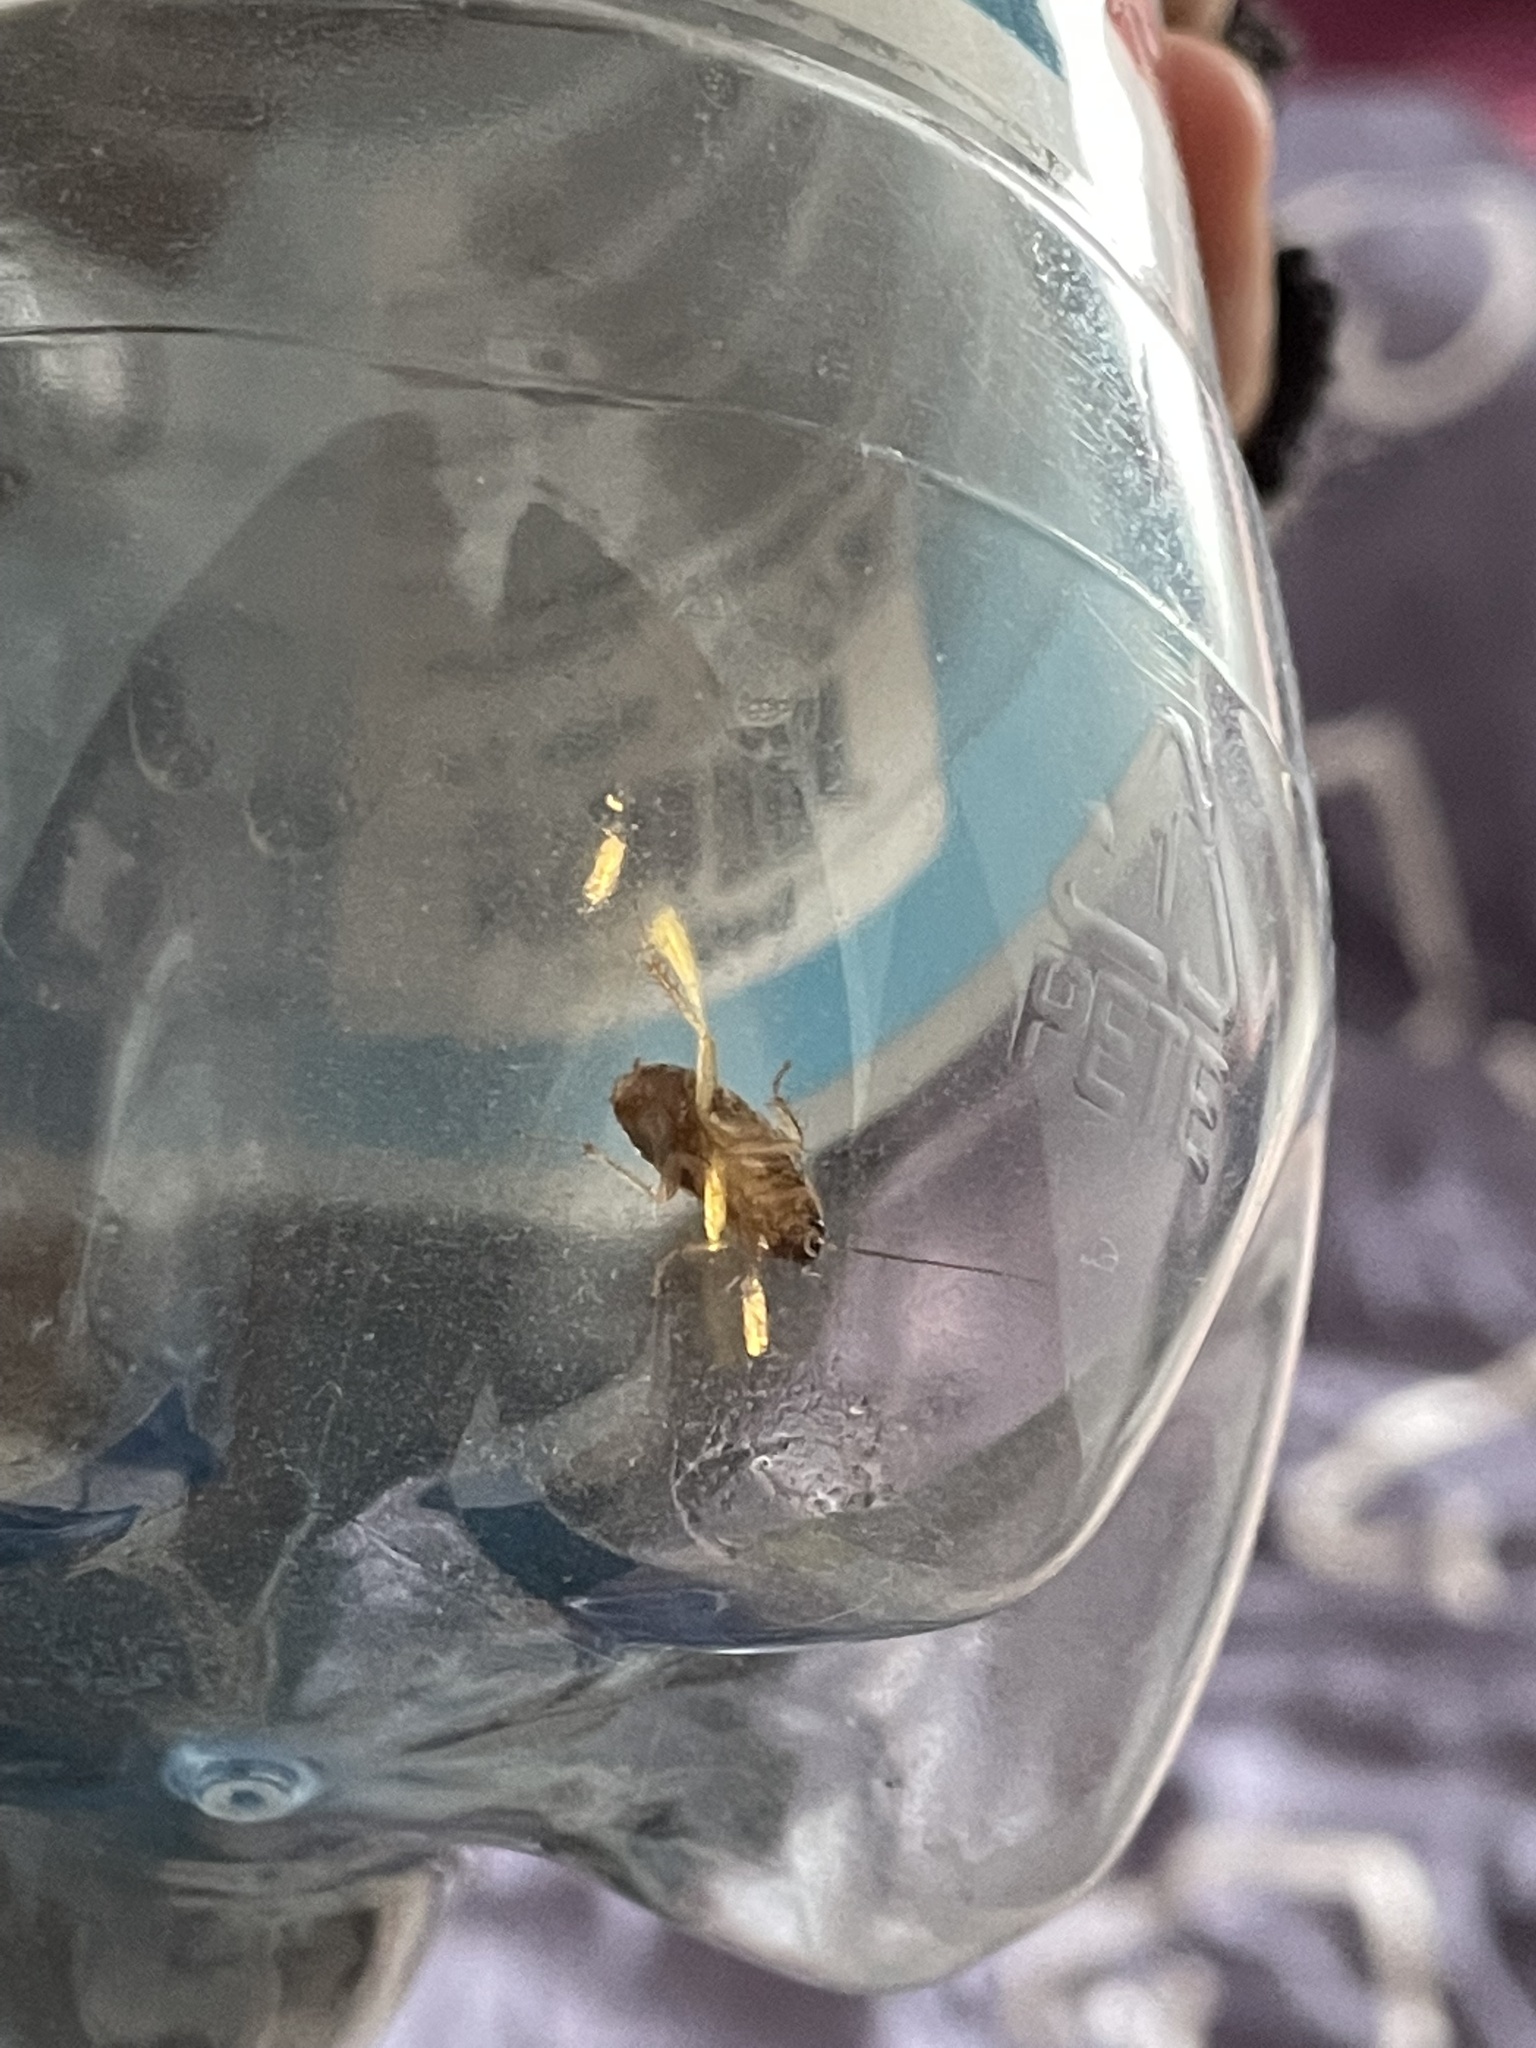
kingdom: Animalia
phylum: Arthropoda
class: Insecta
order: Blattodea
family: Ectobiidae
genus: Blattella
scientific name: Blattella germanica
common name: German cockroach
